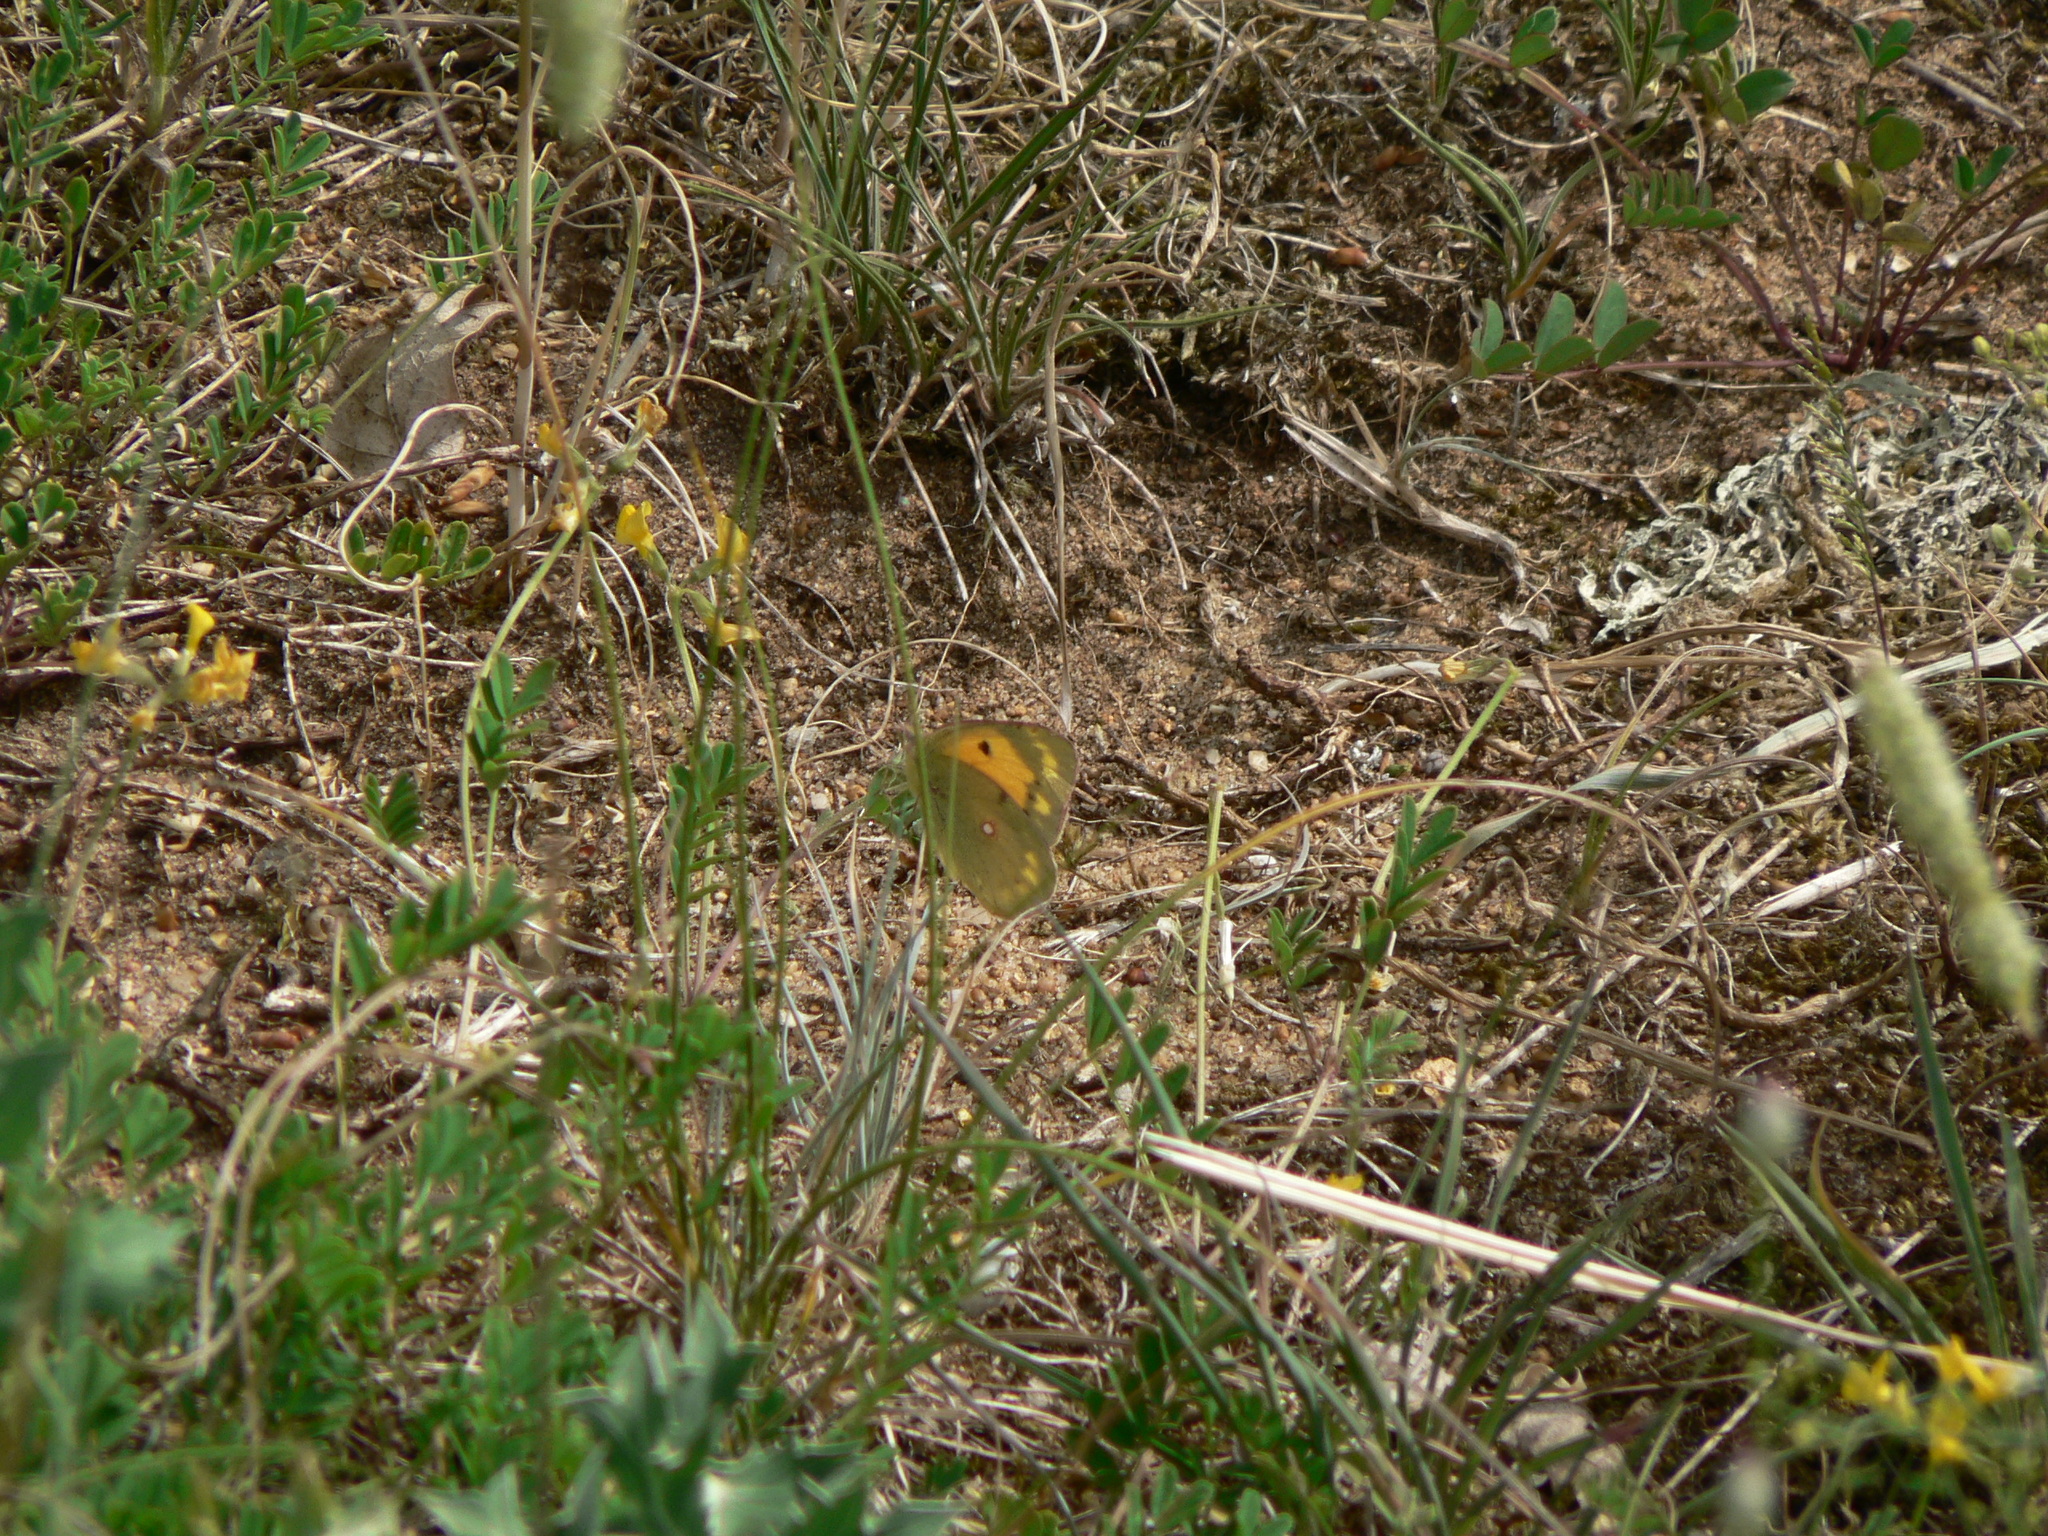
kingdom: Animalia
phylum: Arthropoda
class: Insecta
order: Lepidoptera
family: Pieridae
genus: Colias
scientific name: Colias croceus
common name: Clouded yellow
